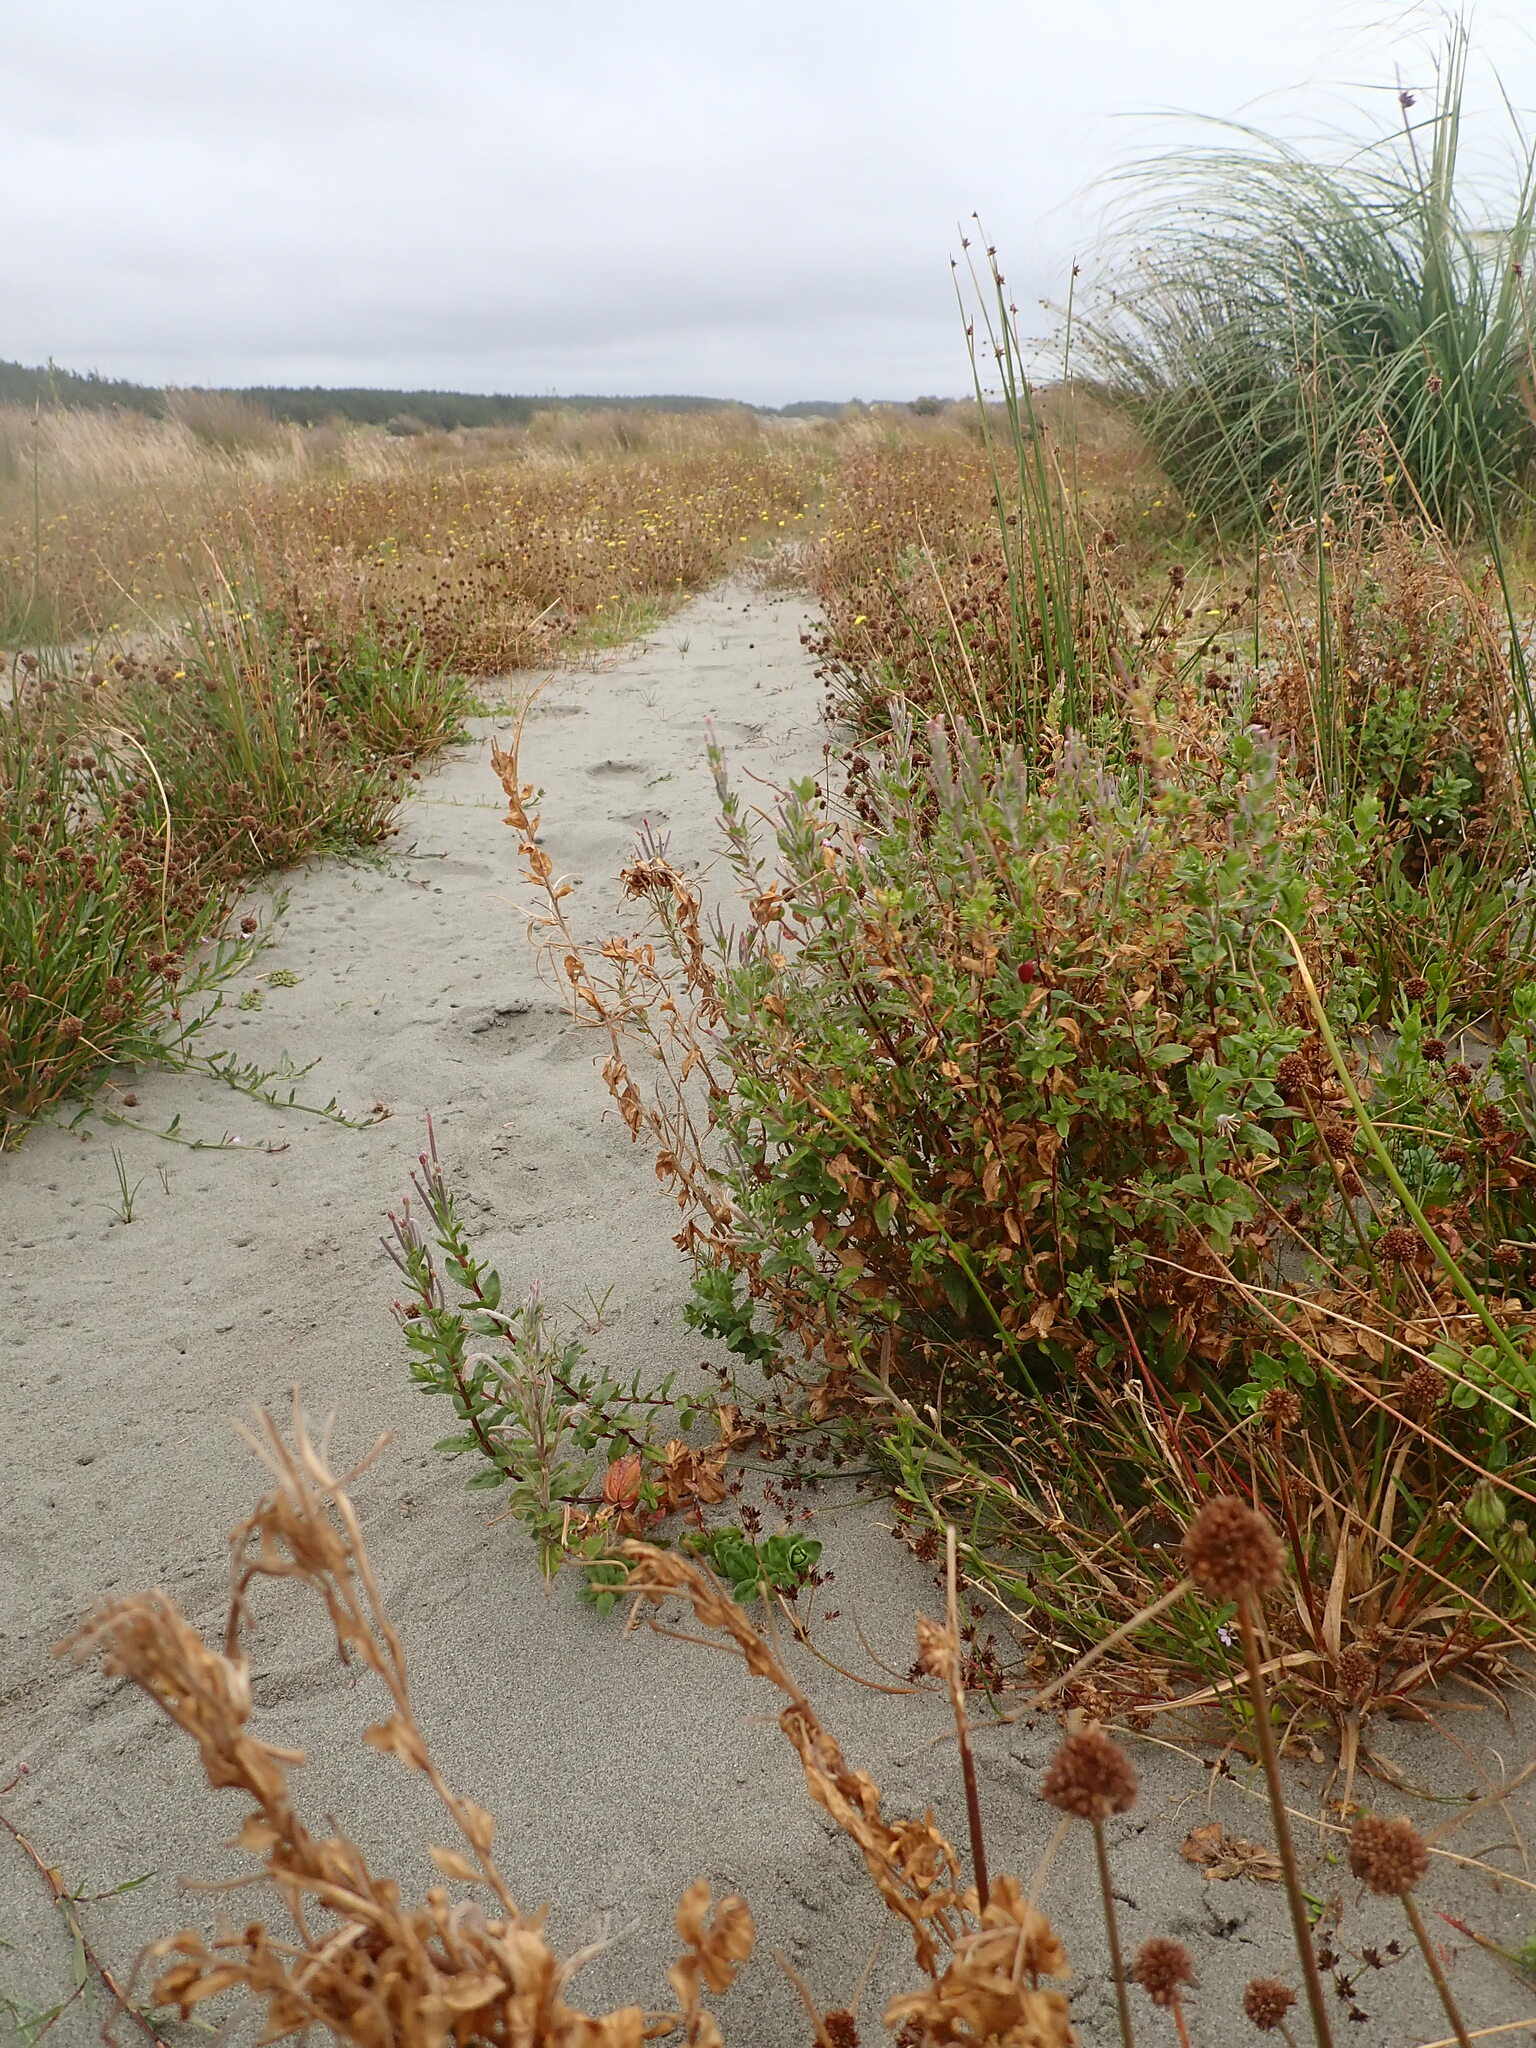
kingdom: Plantae
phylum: Tracheophyta
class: Magnoliopsida
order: Myrtales
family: Onagraceae
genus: Epilobium
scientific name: Epilobium billardiereanum
